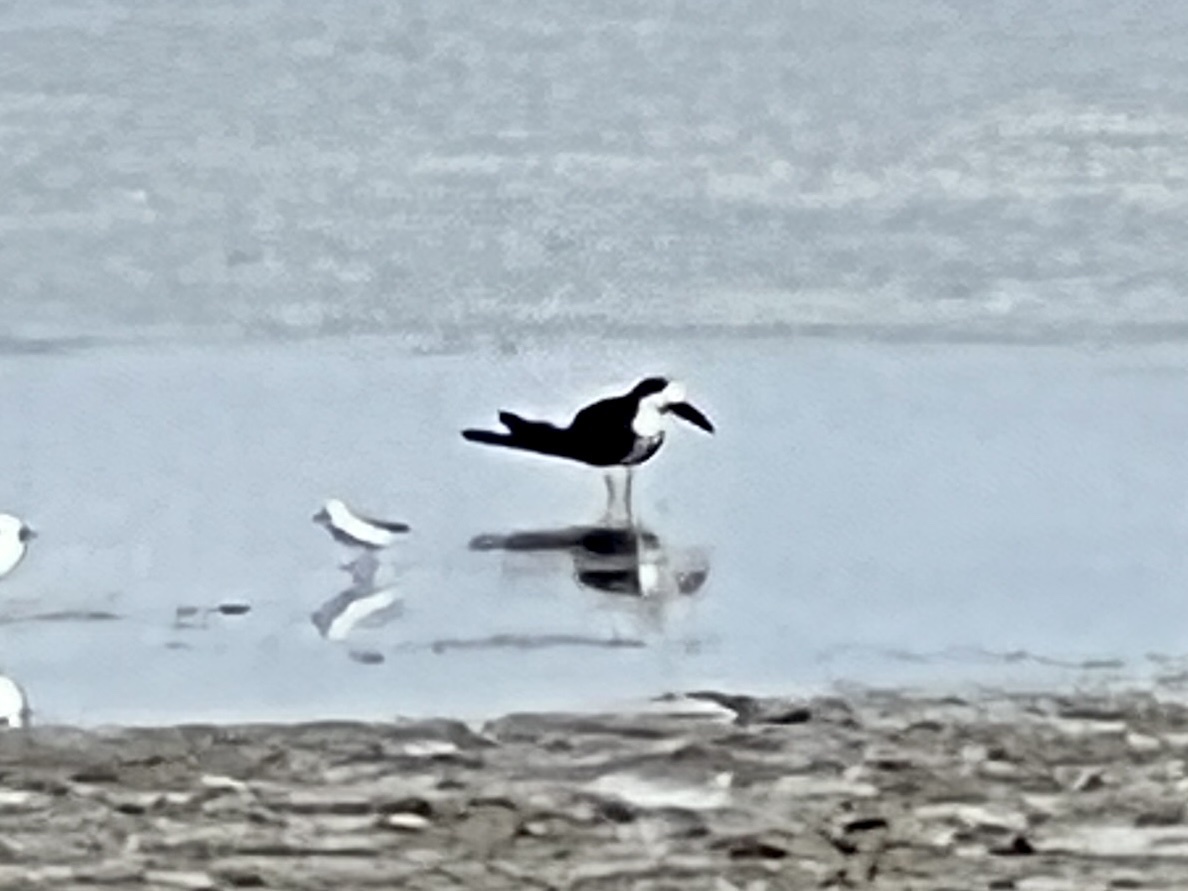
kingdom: Animalia
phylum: Chordata
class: Aves
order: Charadriiformes
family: Laridae
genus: Rynchops
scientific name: Rynchops niger
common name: Black skimmer
